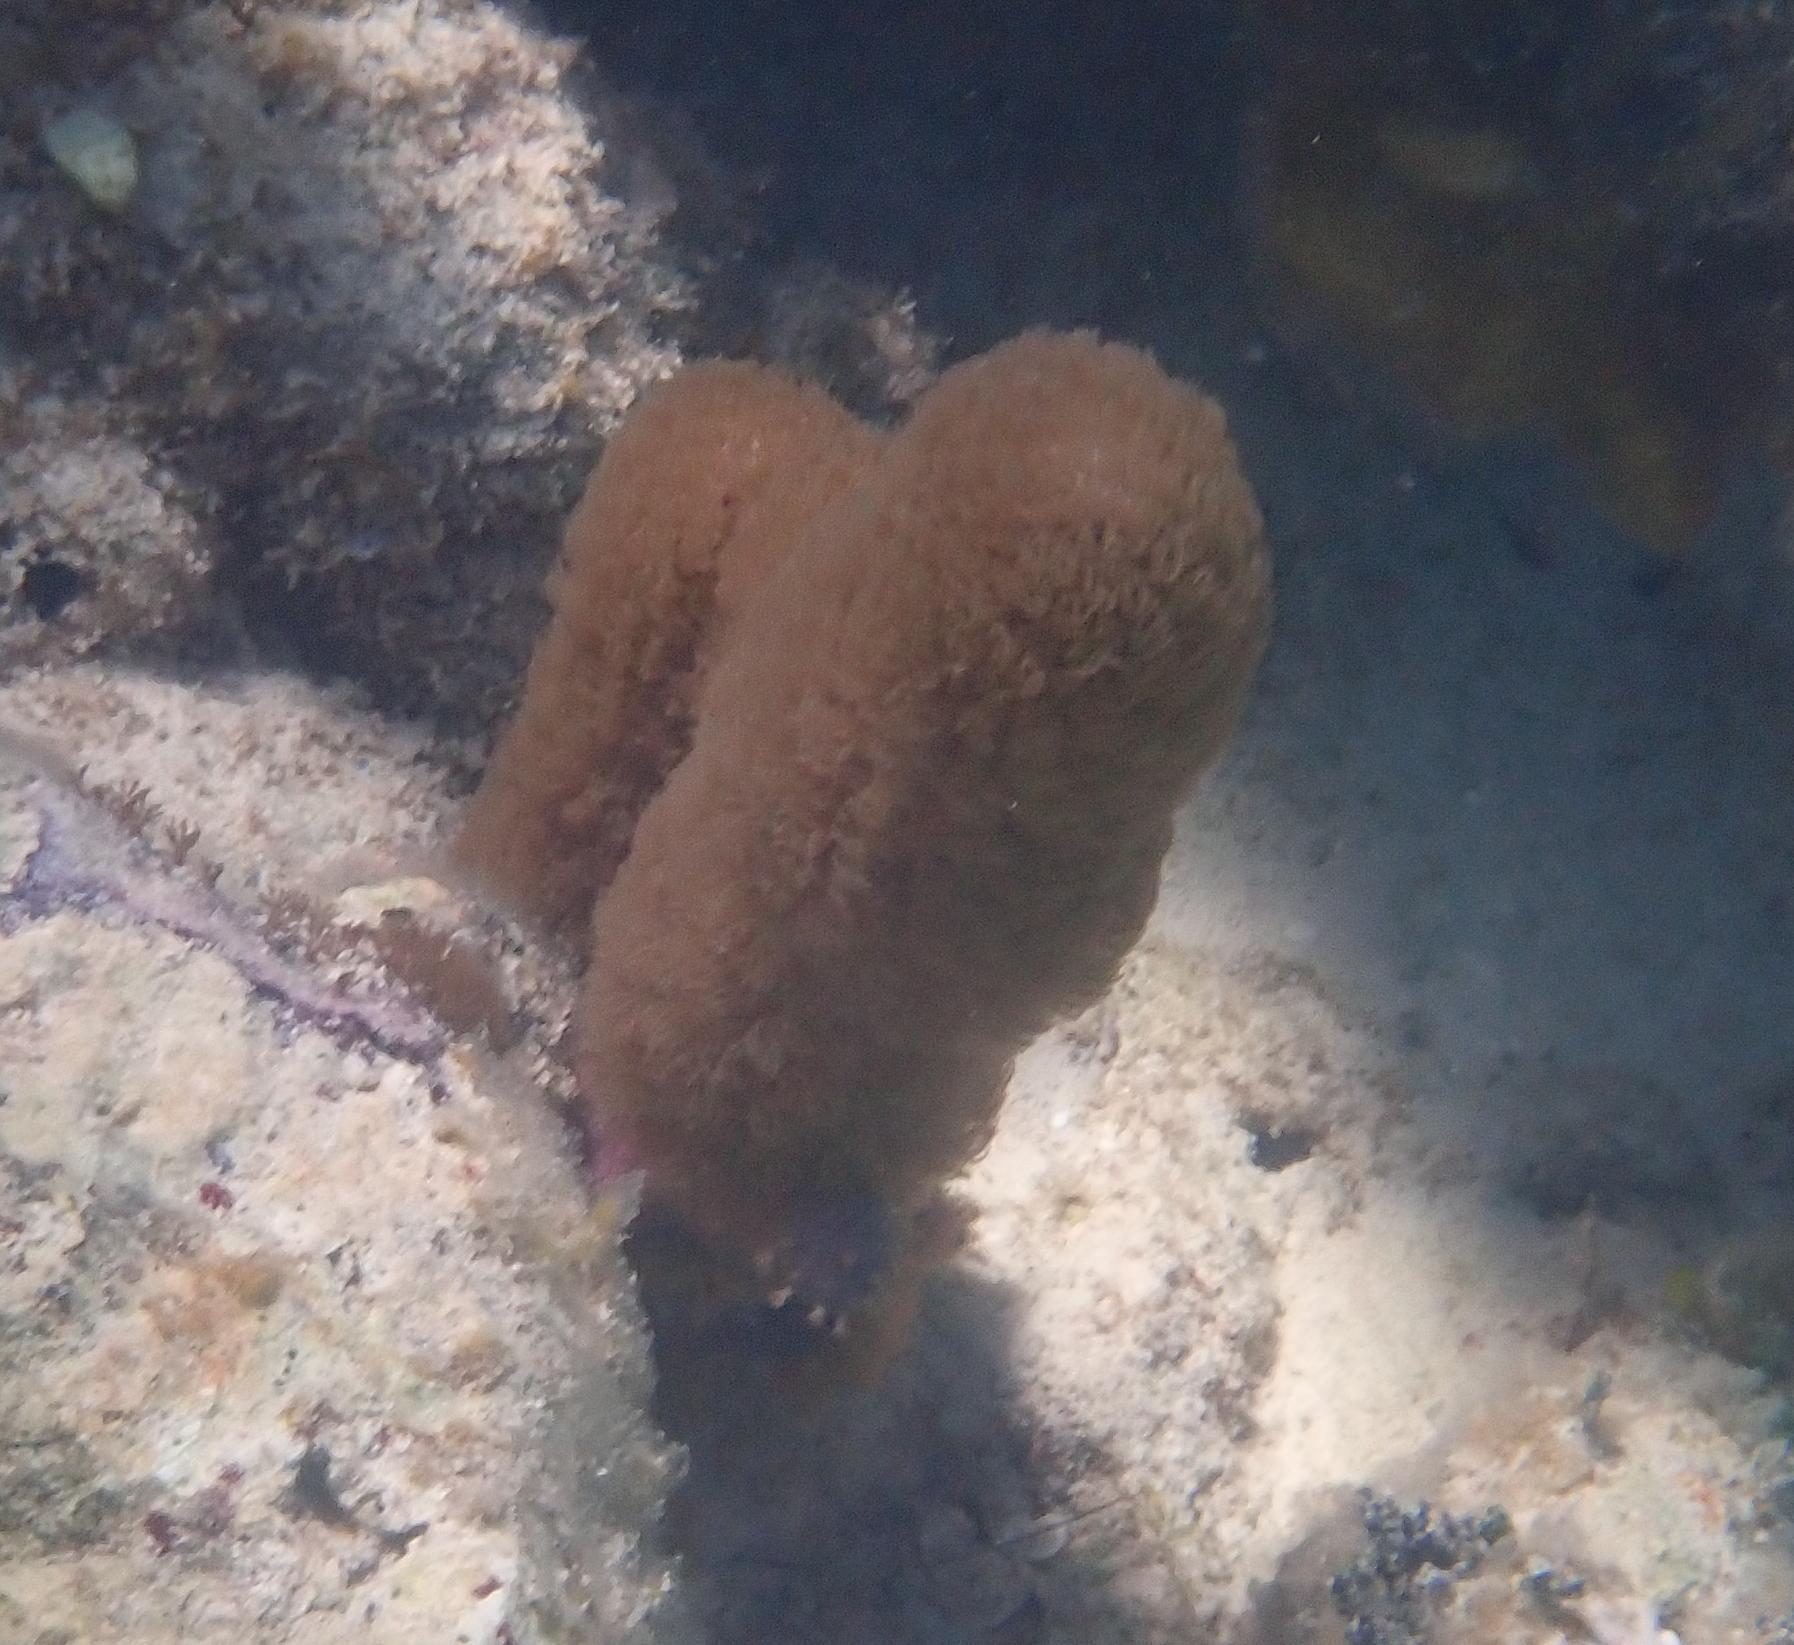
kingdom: Animalia
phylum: Cnidaria
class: Anthozoa
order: Scleralcyonacea
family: Briareidae
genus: Briareum
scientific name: Briareum asbestinum
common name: Corky sea finger
